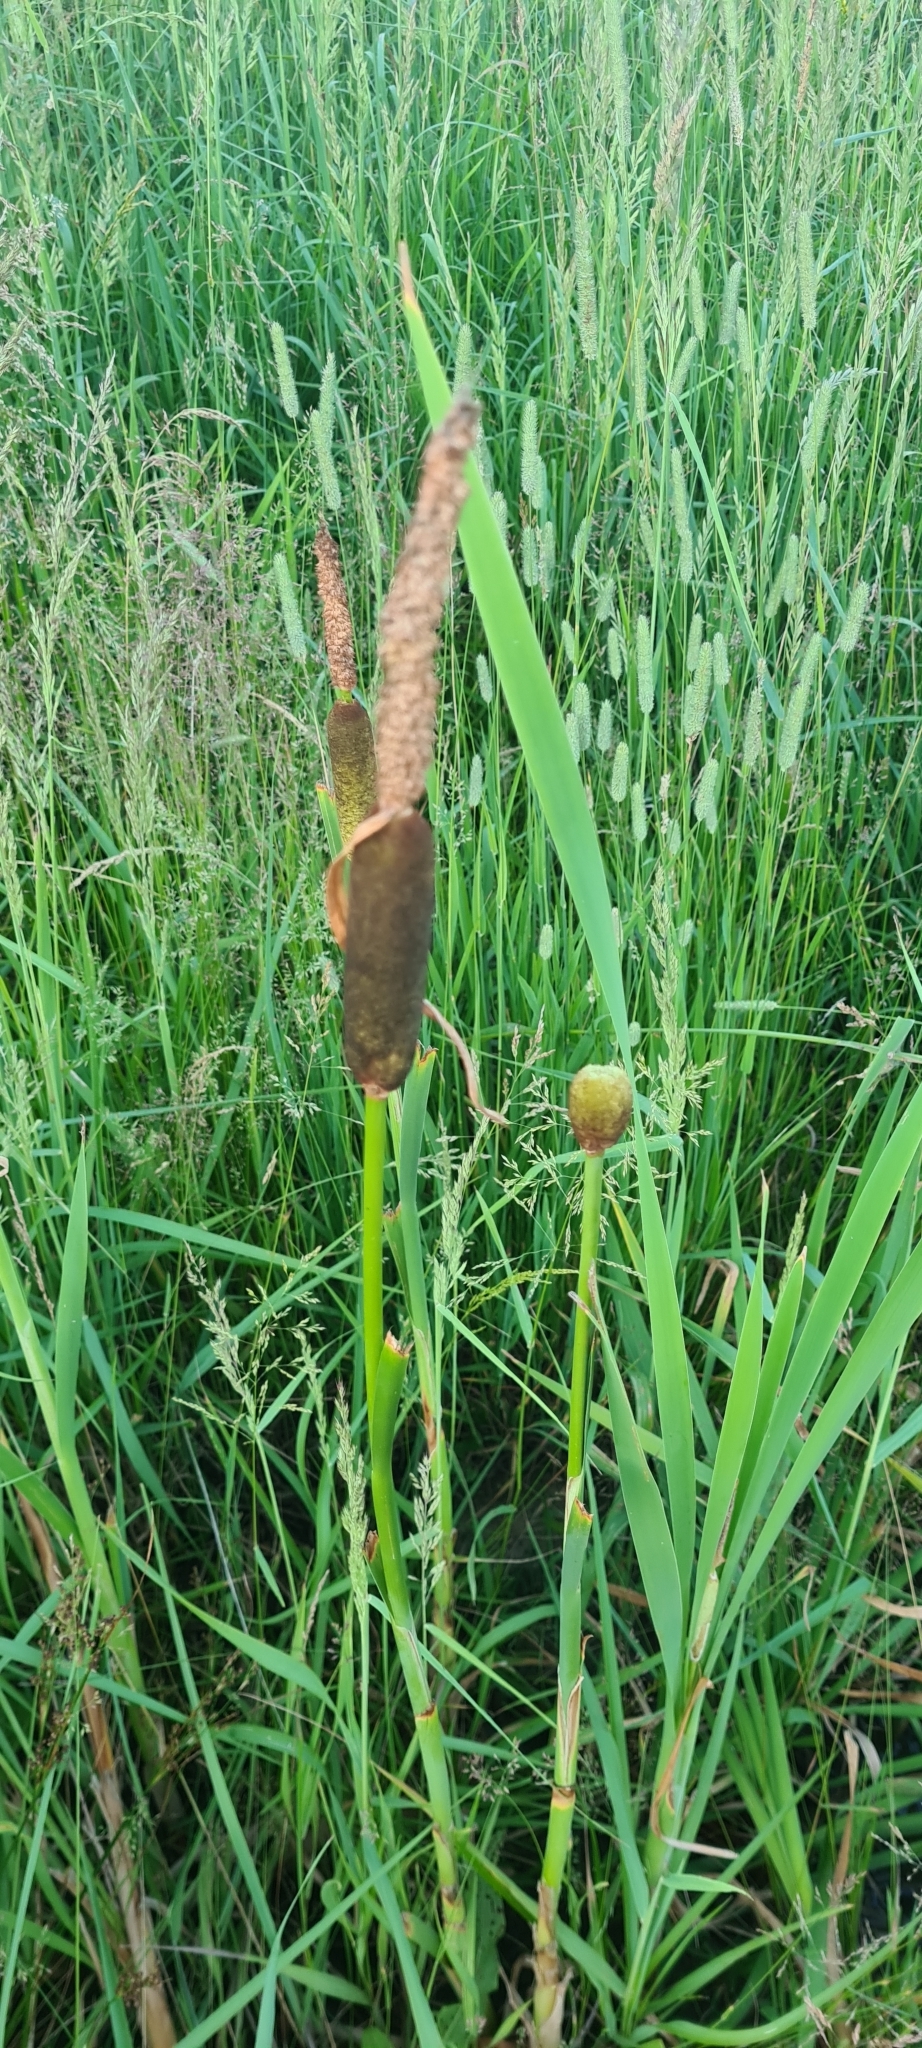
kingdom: Plantae
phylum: Tracheophyta
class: Liliopsida
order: Poales
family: Typhaceae
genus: Typha
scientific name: Typha latifolia
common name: Broadleaf cattail
